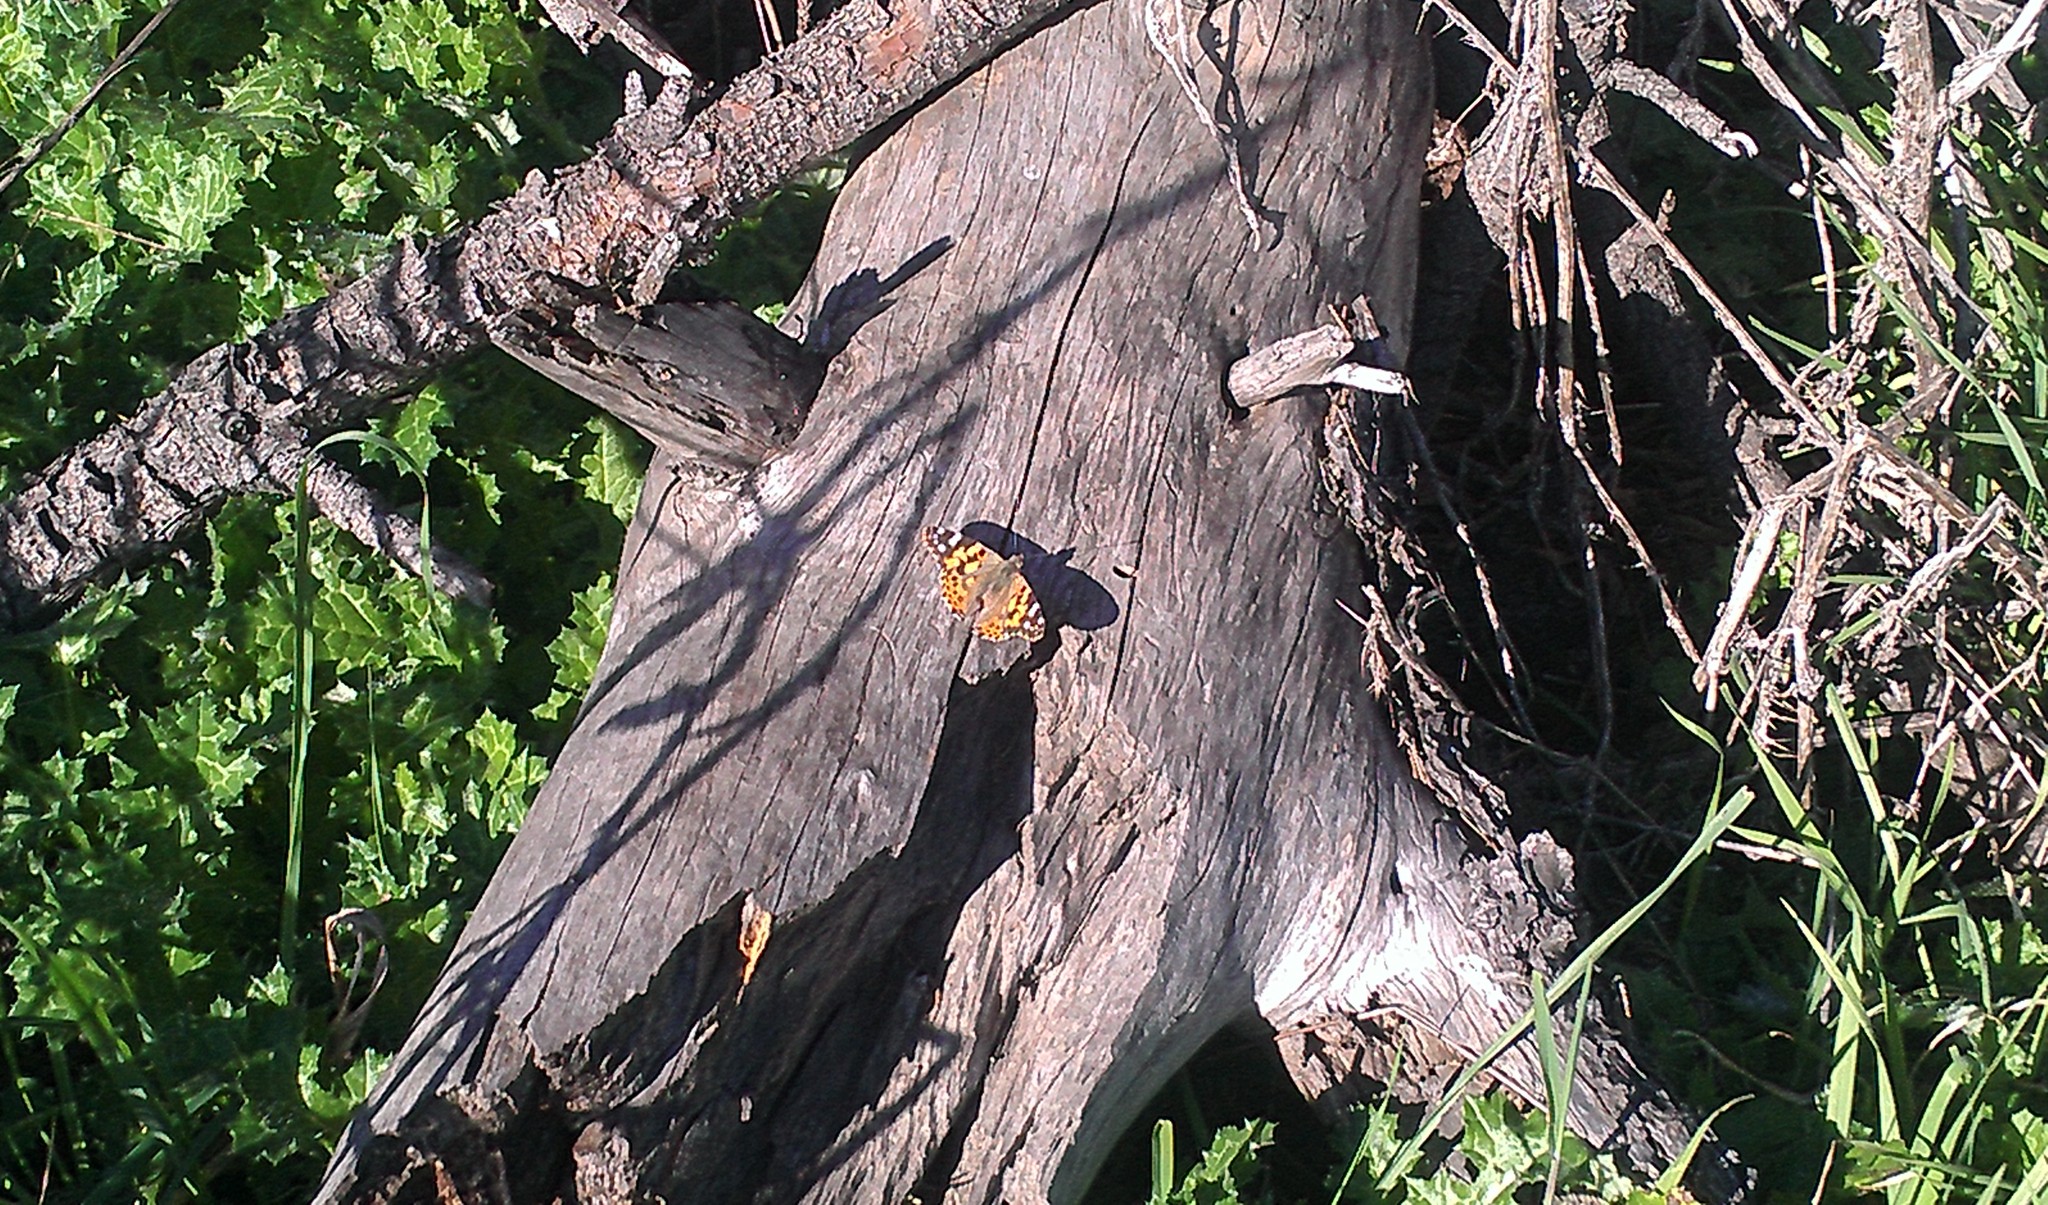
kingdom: Animalia
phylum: Arthropoda
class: Insecta
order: Lepidoptera
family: Nymphalidae
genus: Vanessa
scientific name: Vanessa cardui
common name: Painted lady
